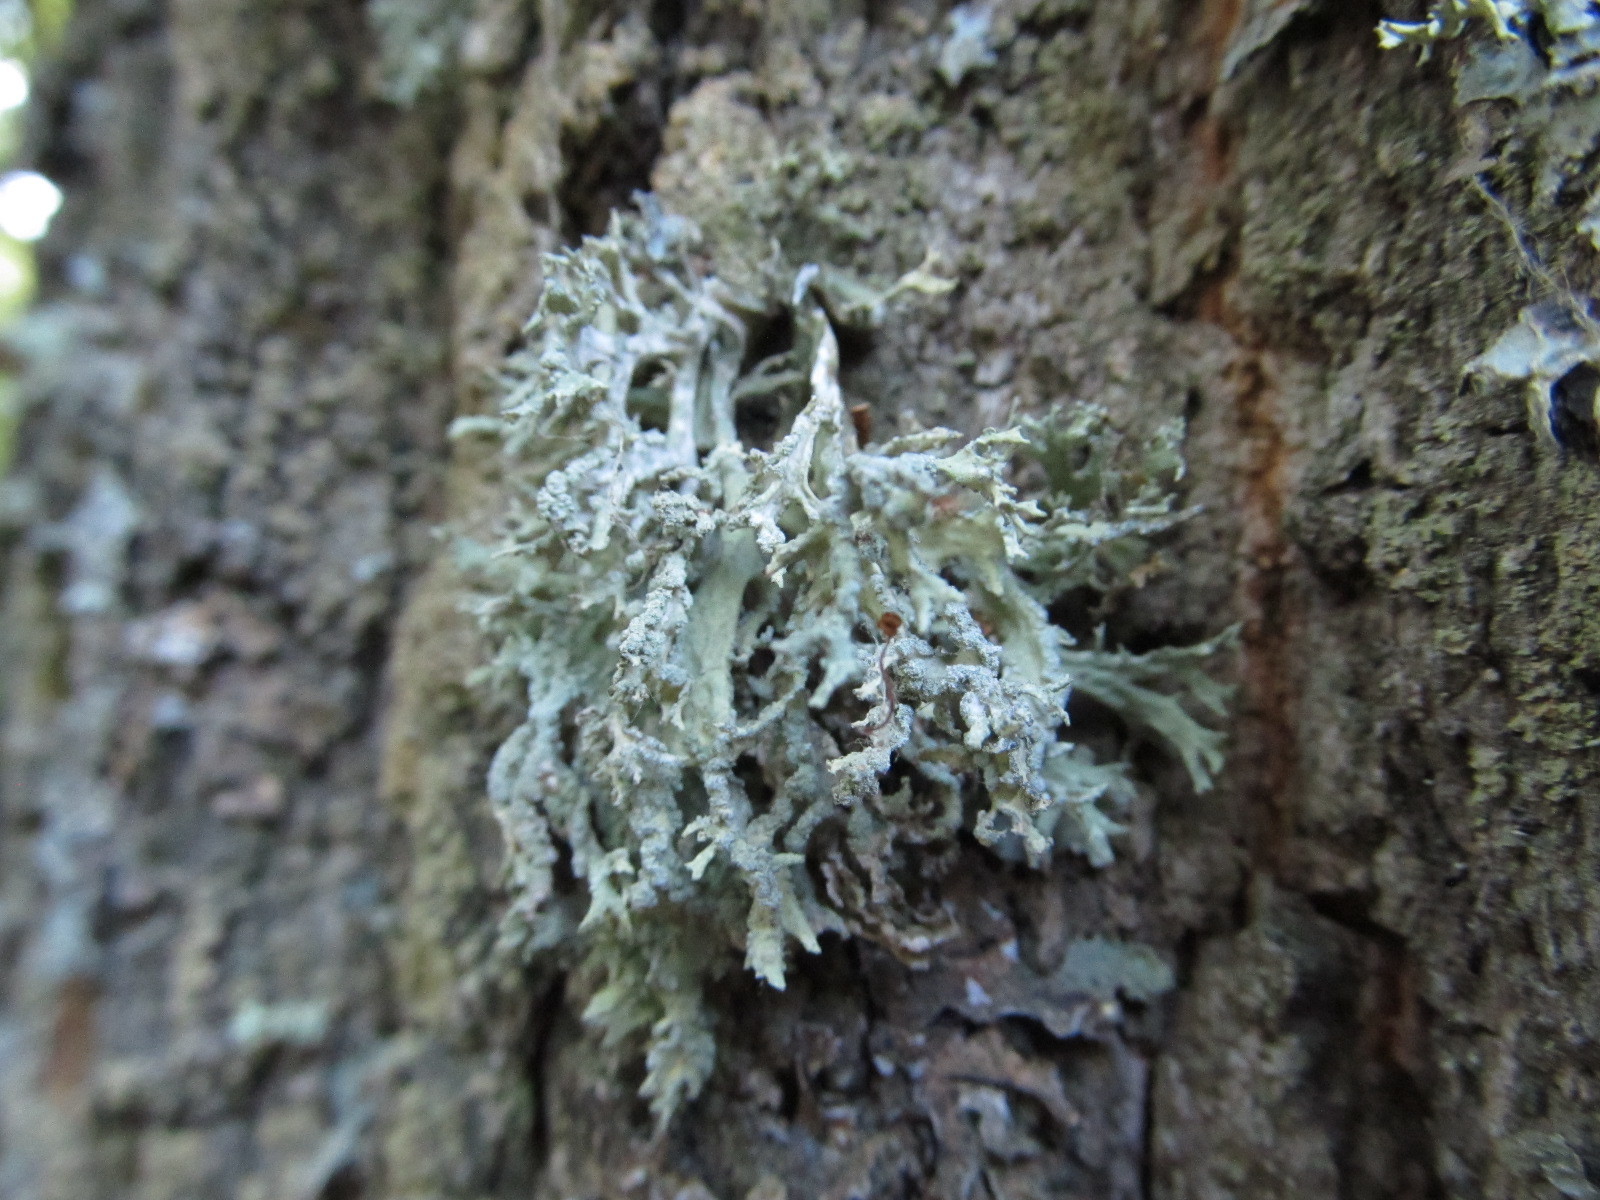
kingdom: Fungi
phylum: Ascomycota
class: Lecanoromycetes
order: Lecanorales
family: Parmeliaceae
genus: Evernia
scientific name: Evernia prunastri
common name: Oak moss
